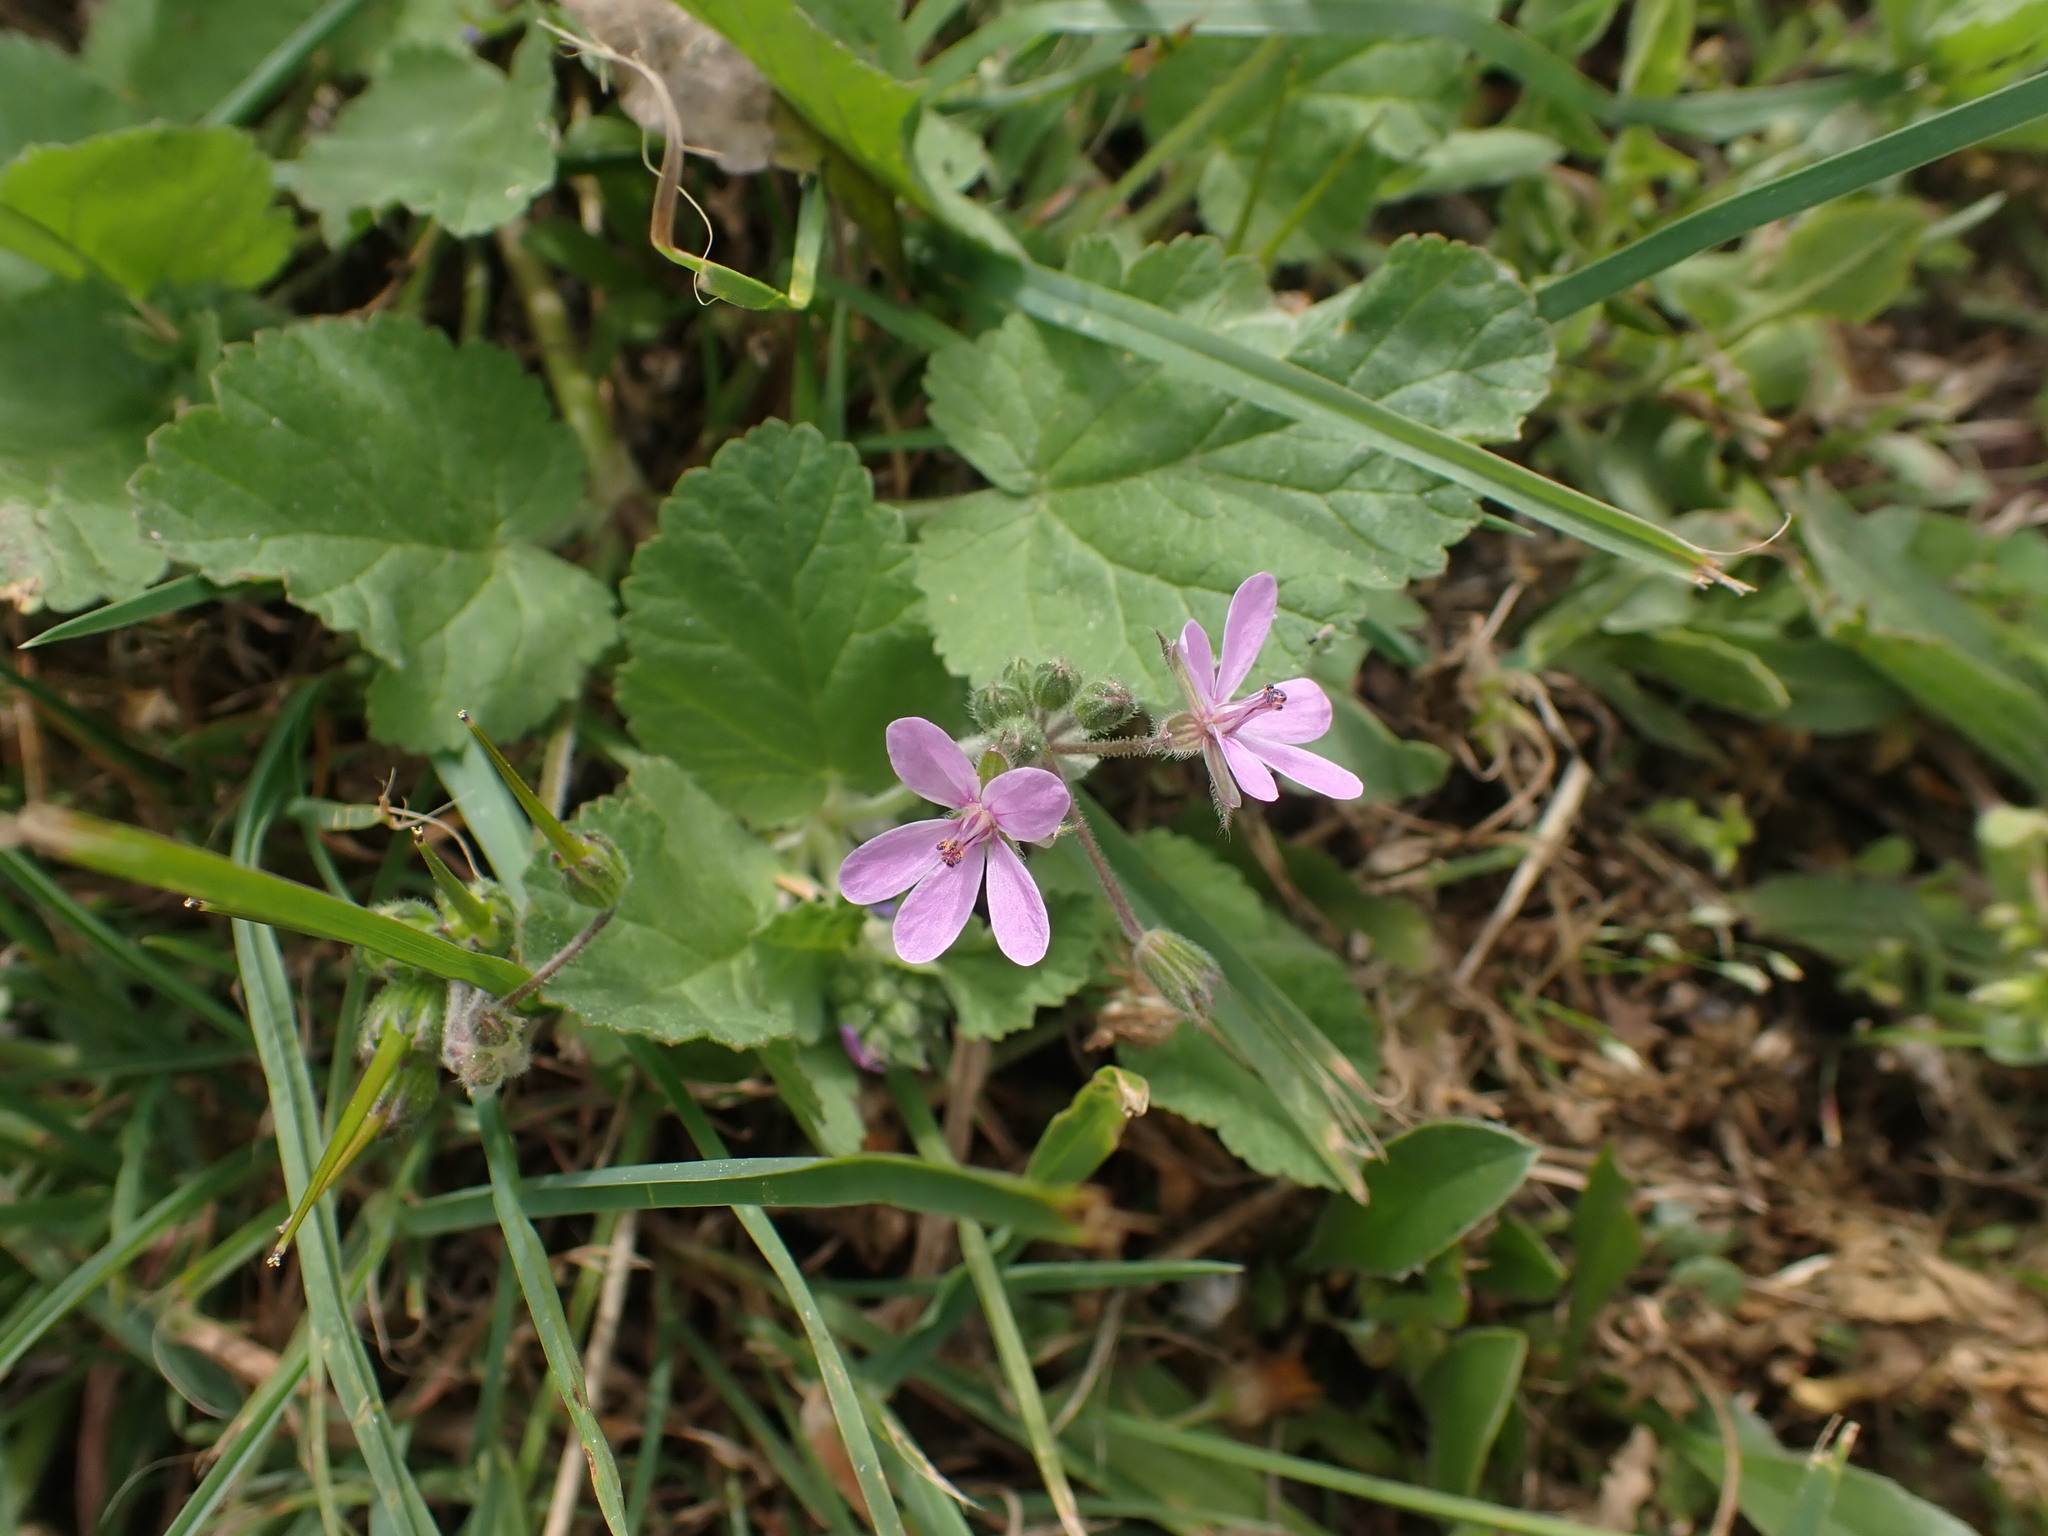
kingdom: Plantae
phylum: Tracheophyta
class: Magnoliopsida
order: Geraniales
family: Geraniaceae
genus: Erodium
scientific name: Erodium malacoides
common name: Soft stork's-bill
